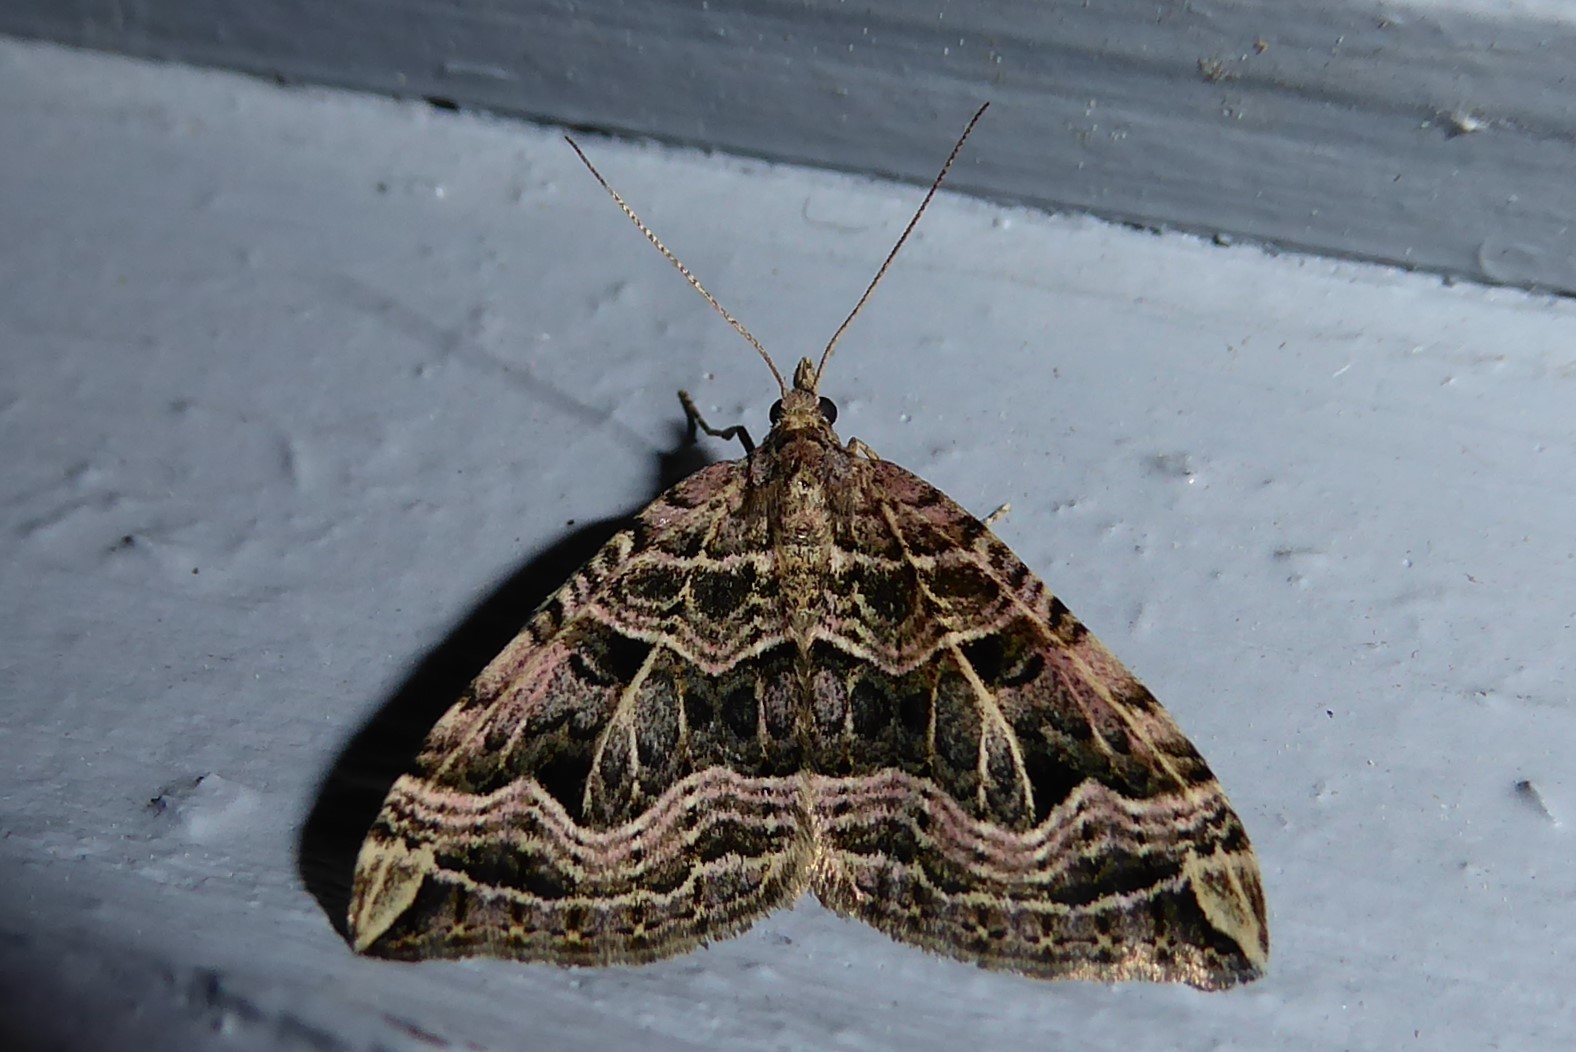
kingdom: Animalia
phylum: Arthropoda
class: Insecta
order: Lepidoptera
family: Geometridae
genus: Xanthorhoe
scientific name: Xanthorhoe semifissata
